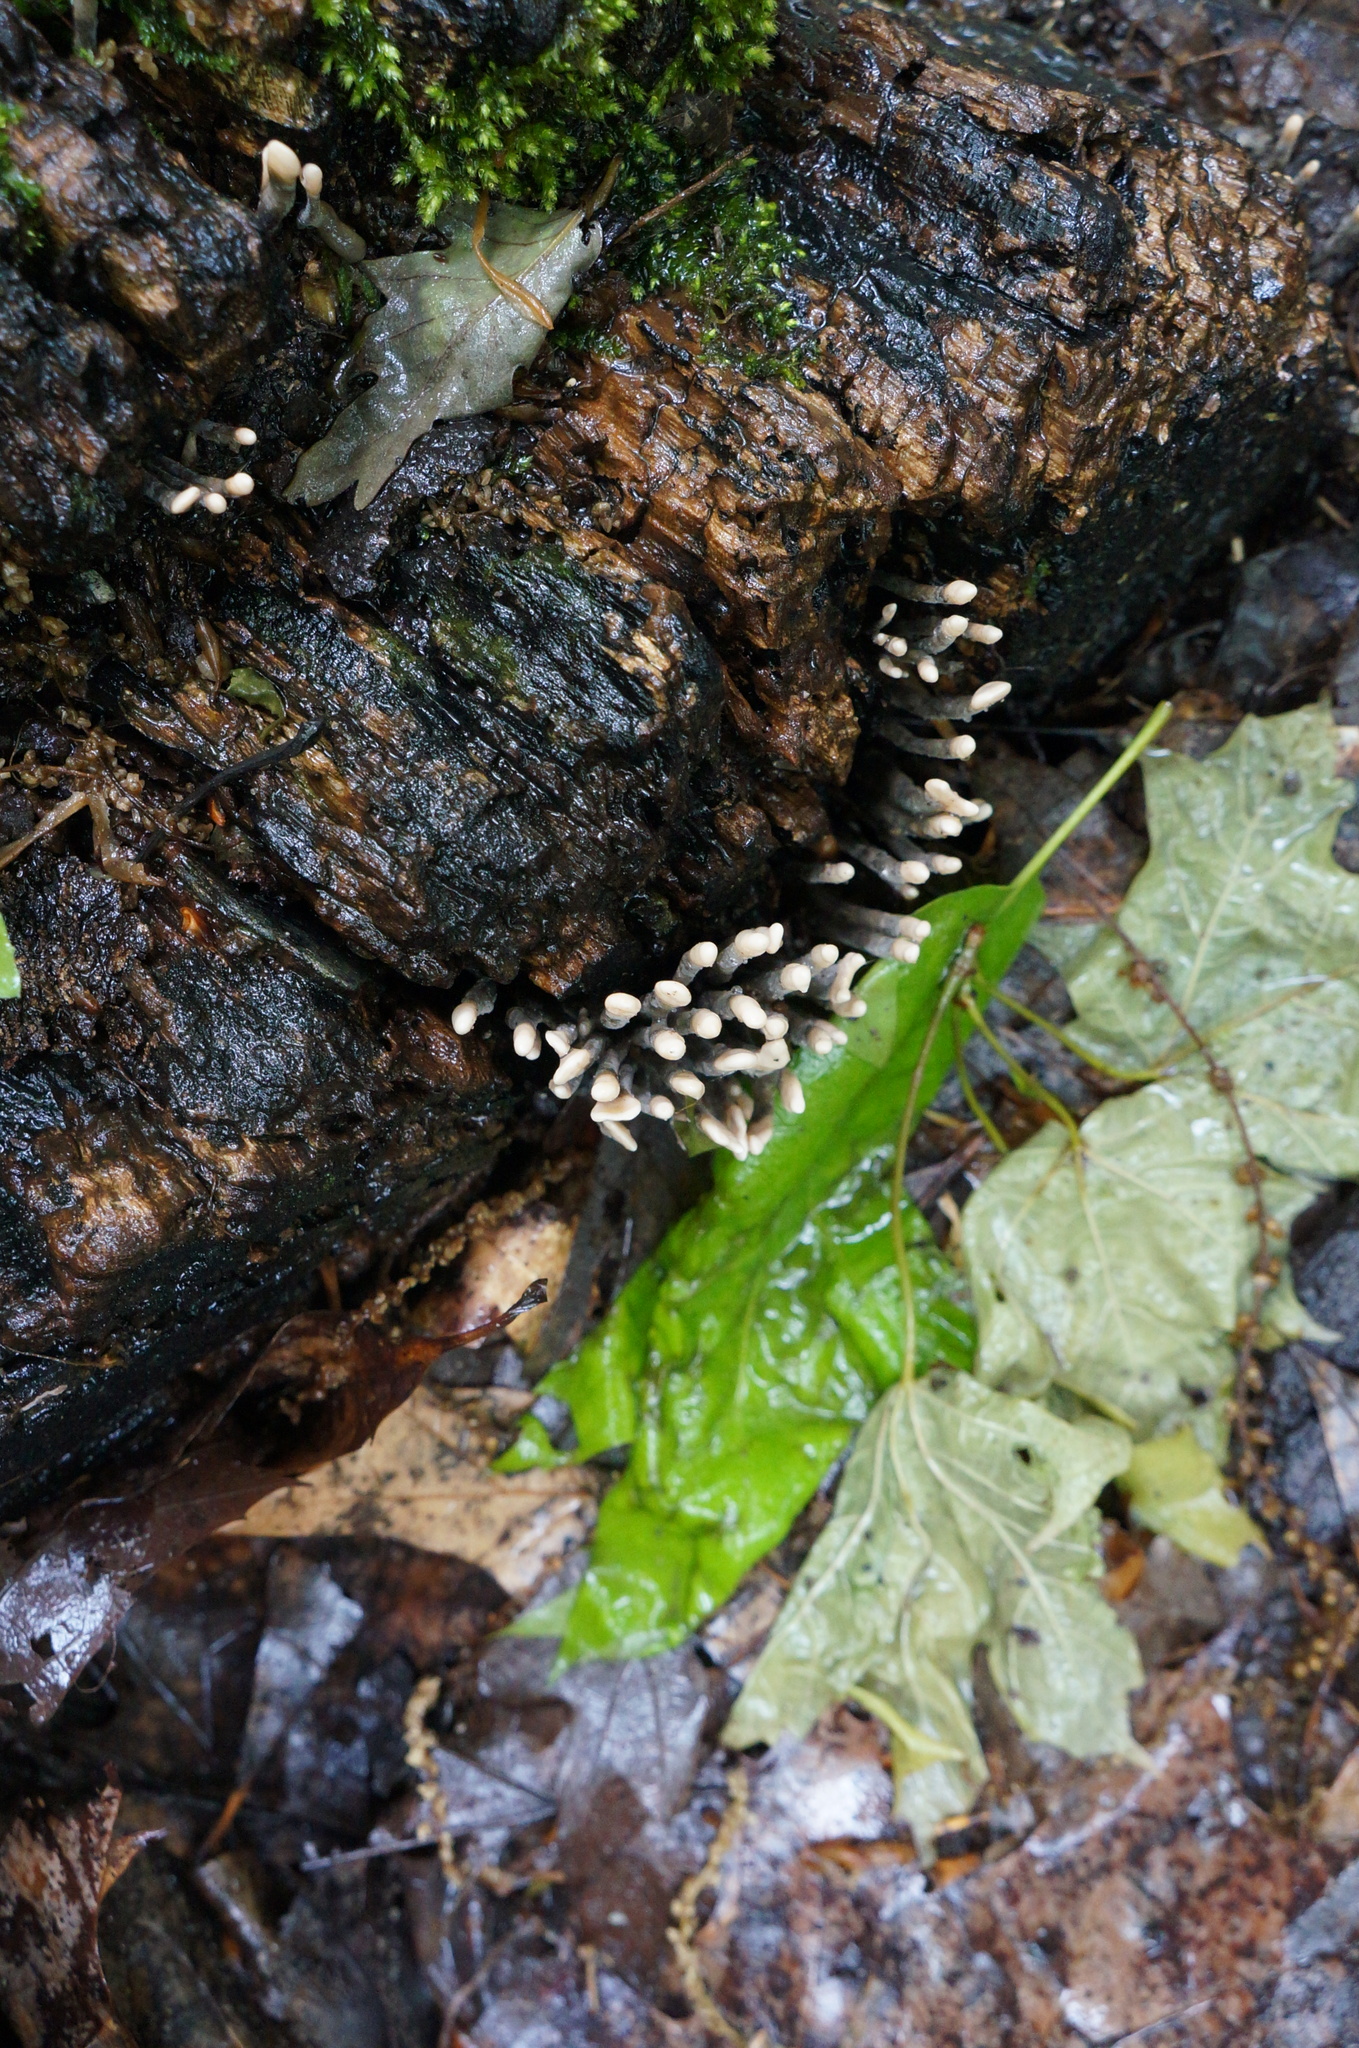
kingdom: Fungi
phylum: Ascomycota
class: Sordariomycetes
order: Xylariales
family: Xylariaceae
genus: Xylaria
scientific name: Xylaria hypoxylon
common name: Candle-snuff fungus
